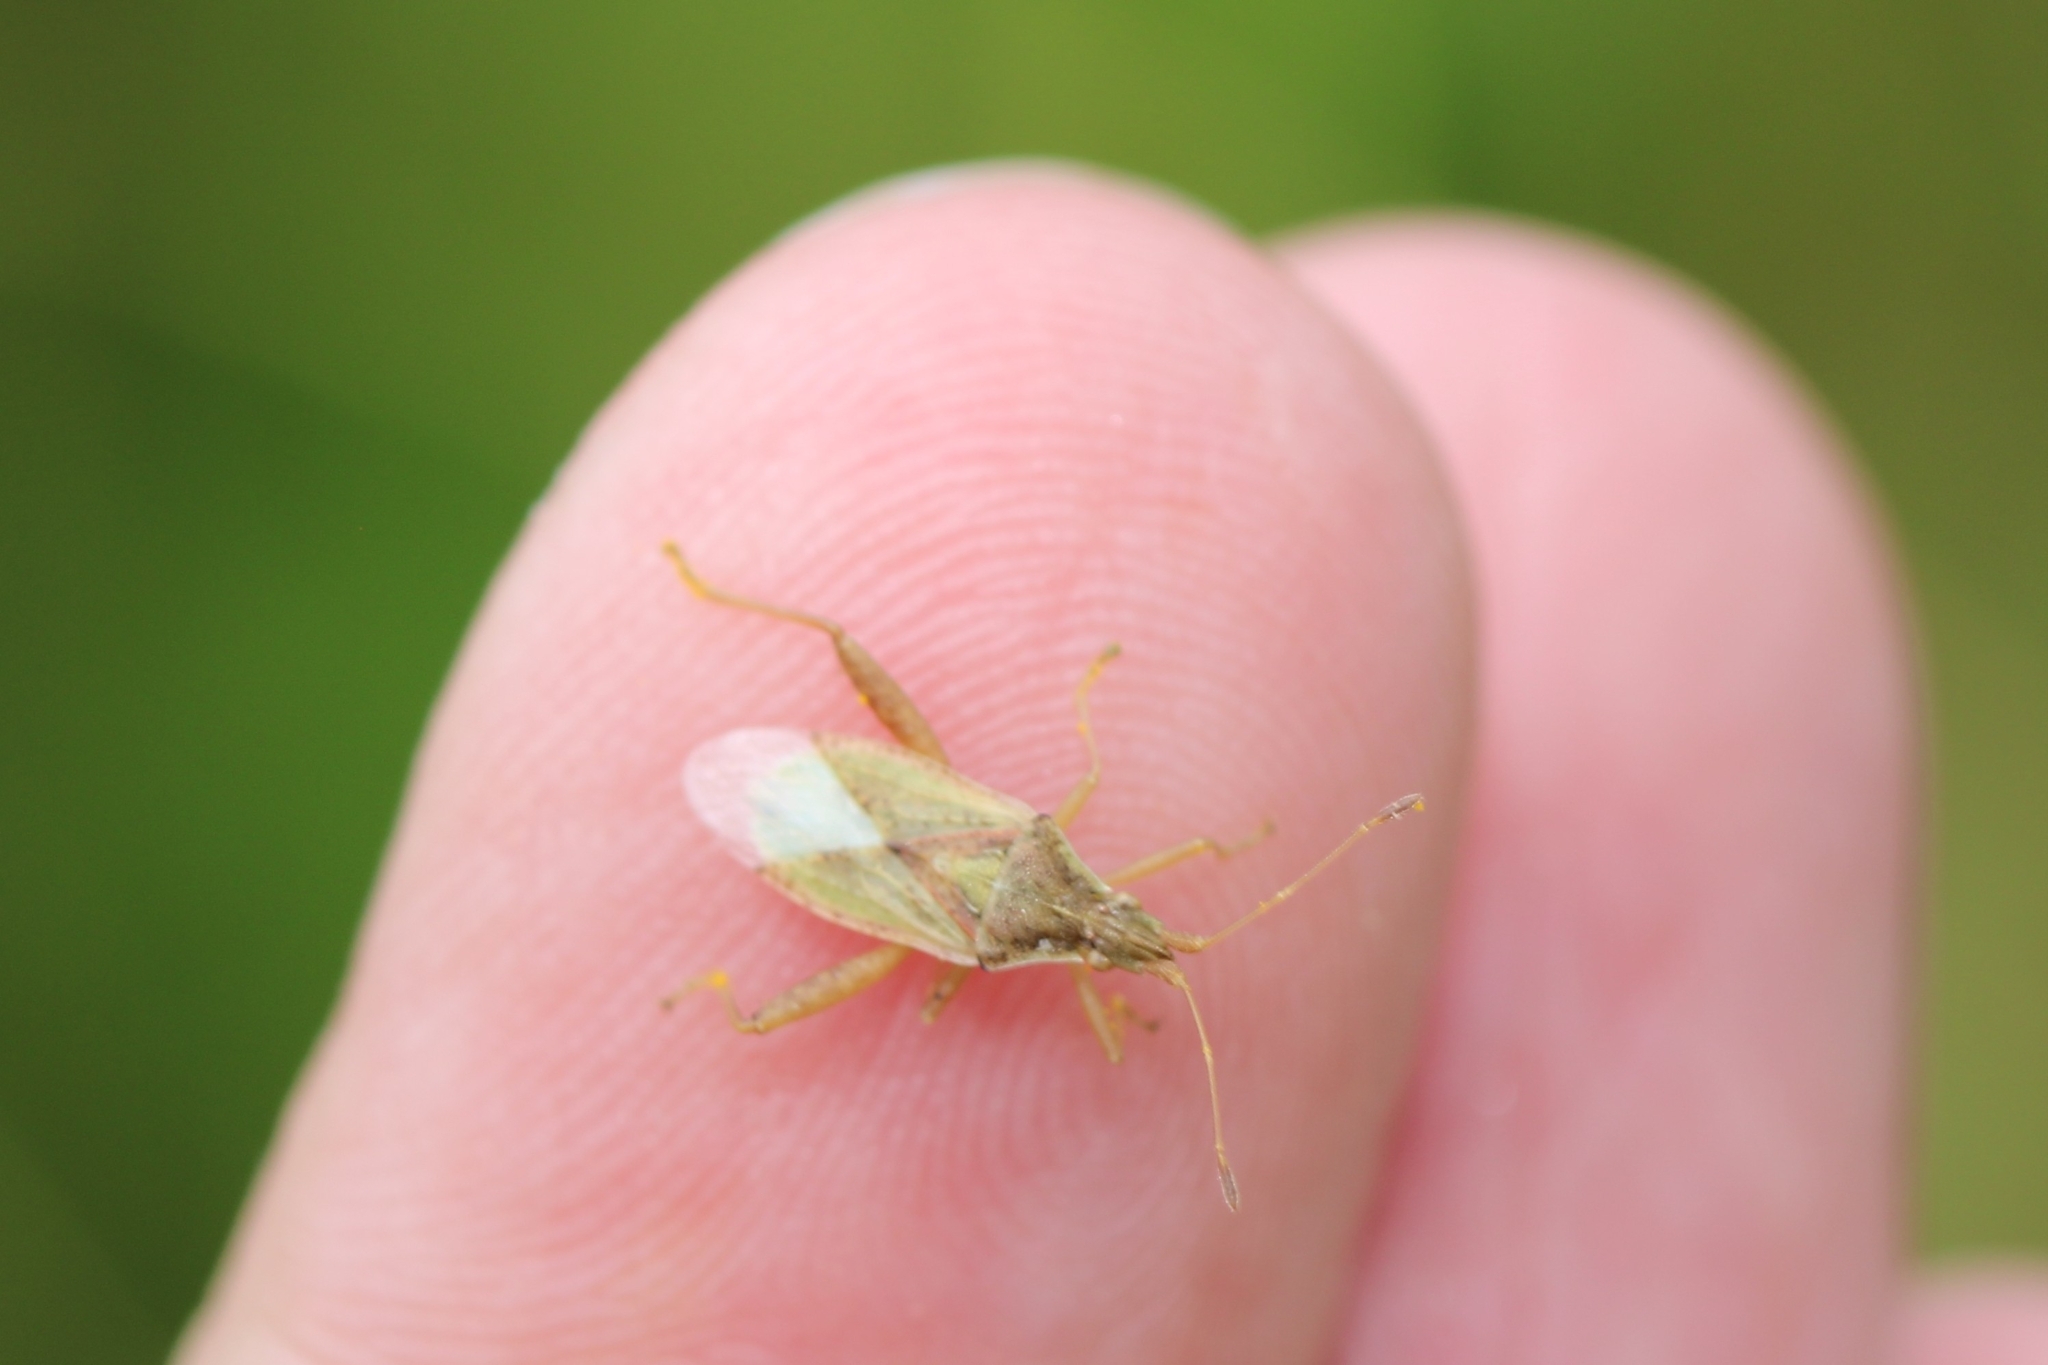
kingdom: Animalia
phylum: Arthropoda
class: Insecta
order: Hemiptera
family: Rhopalidae
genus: Harmostes
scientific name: Harmostes reflexulus
